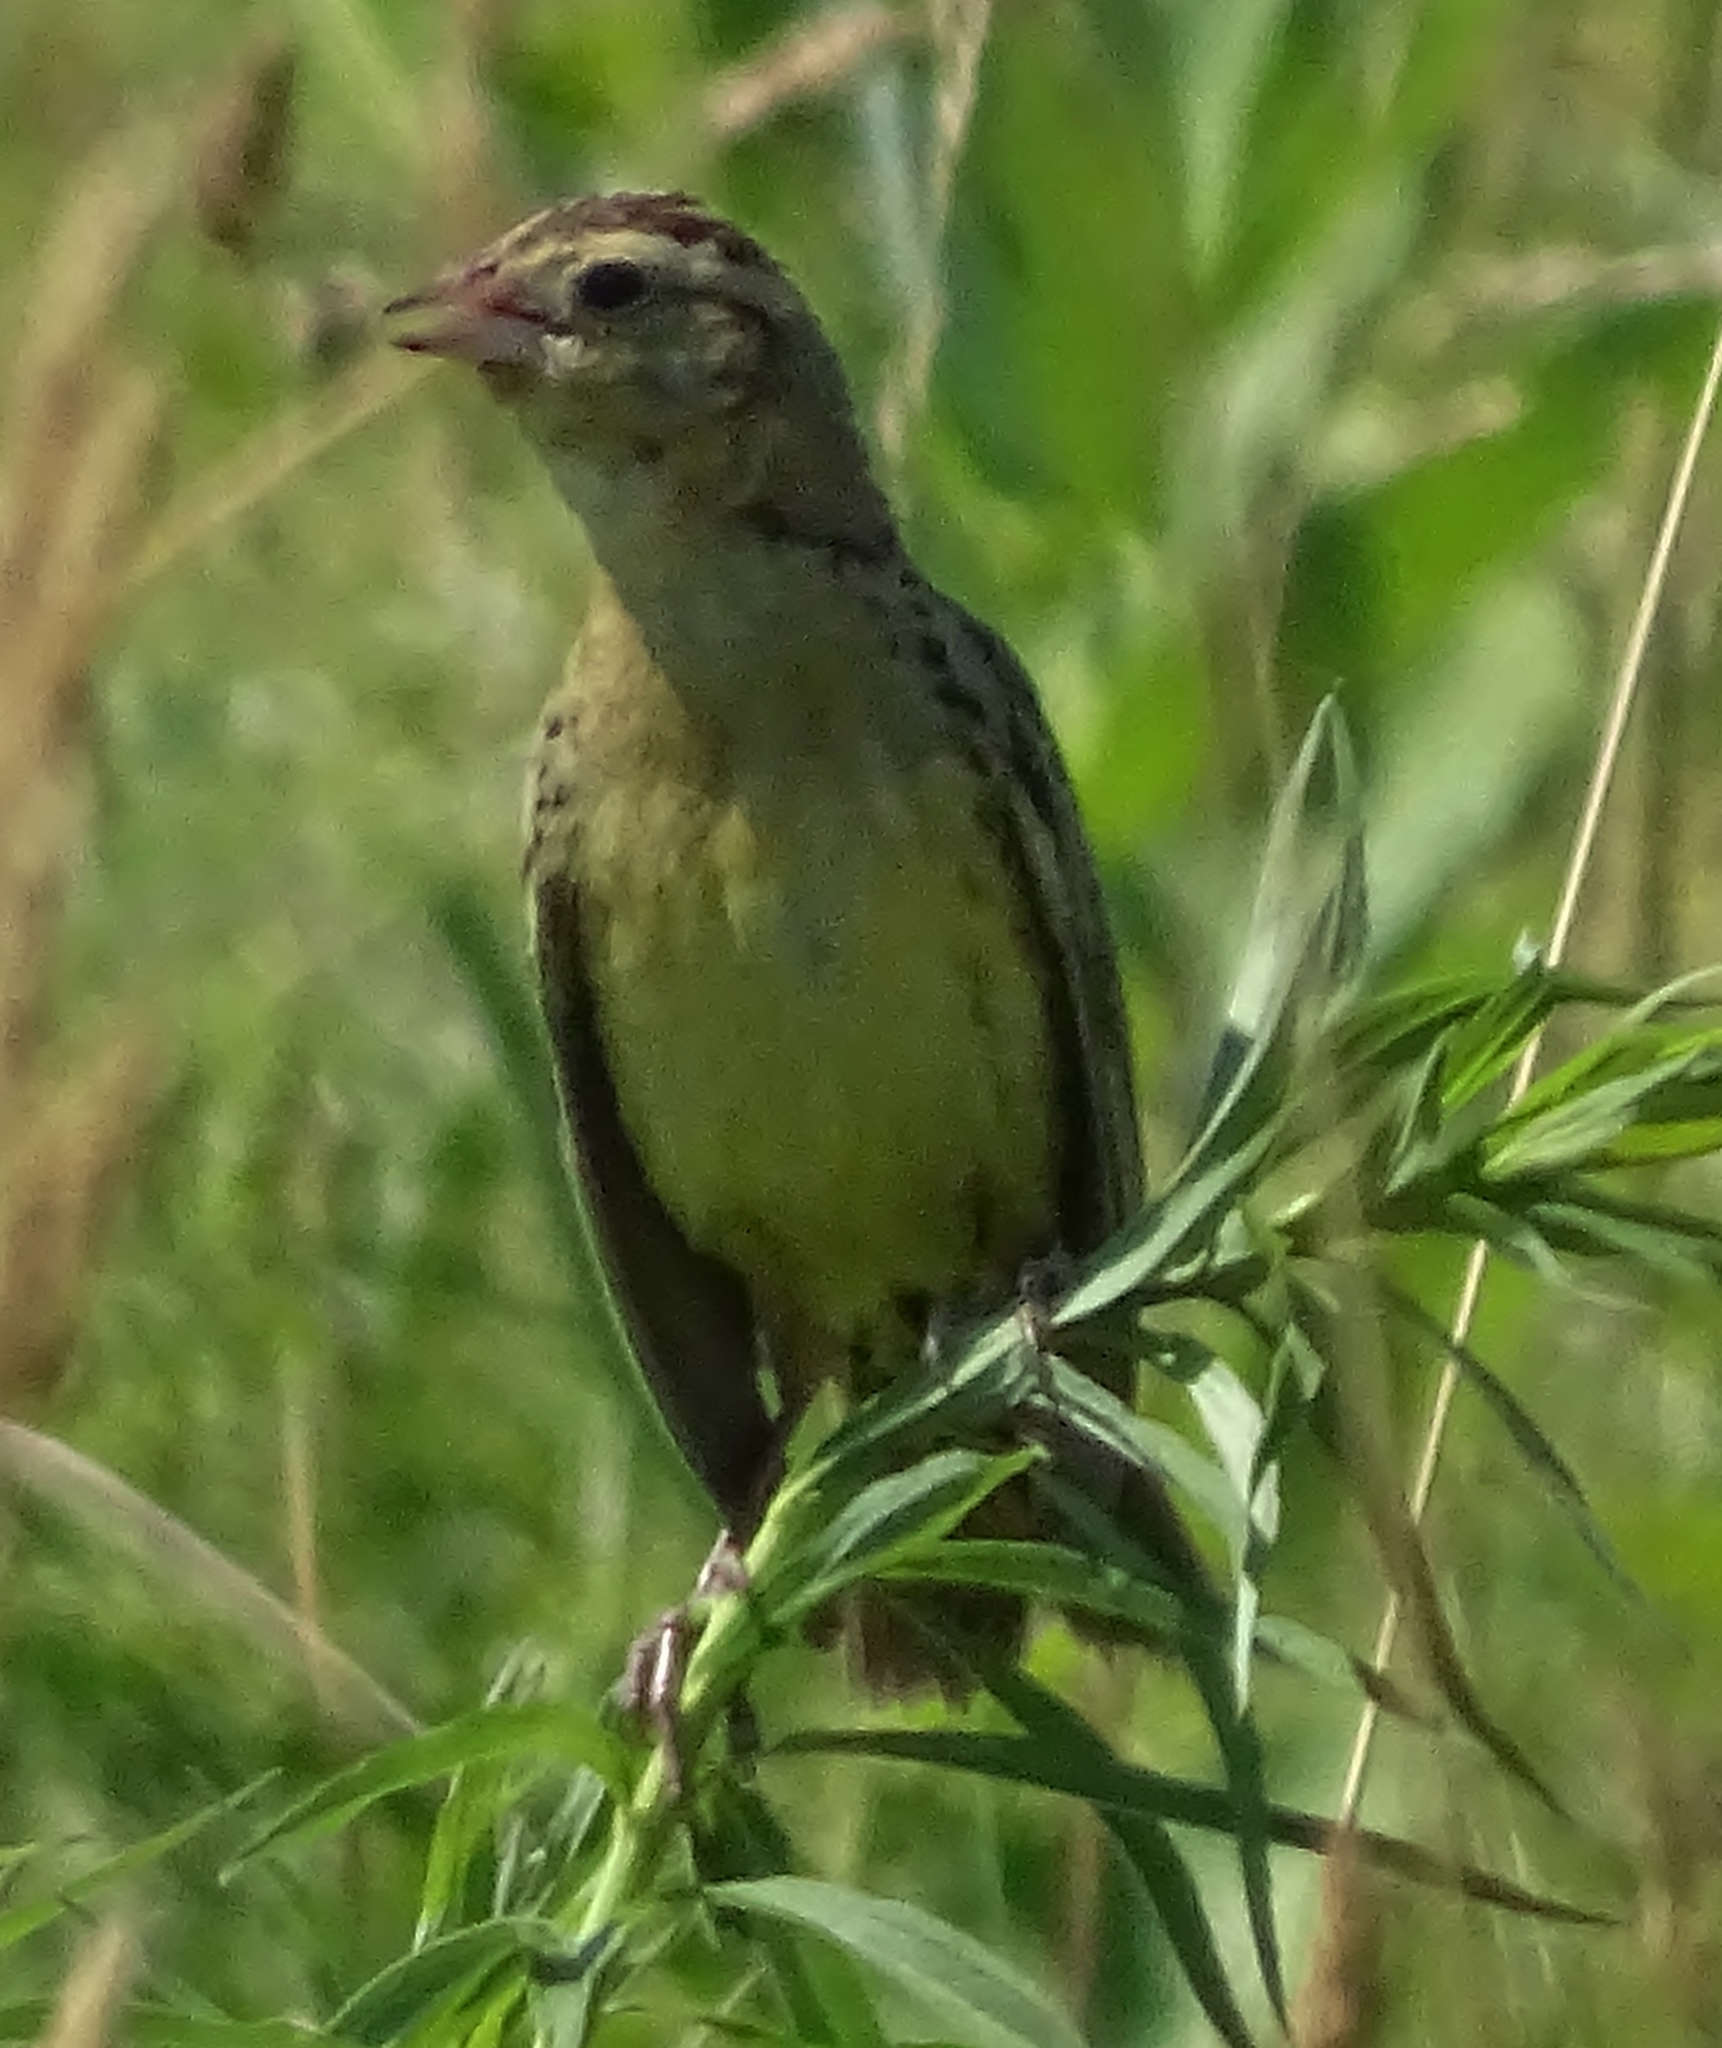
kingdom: Animalia
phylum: Chordata
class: Aves
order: Passeriformes
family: Icteridae
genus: Dolichonyx
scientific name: Dolichonyx oryzivorus
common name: Bobolink
